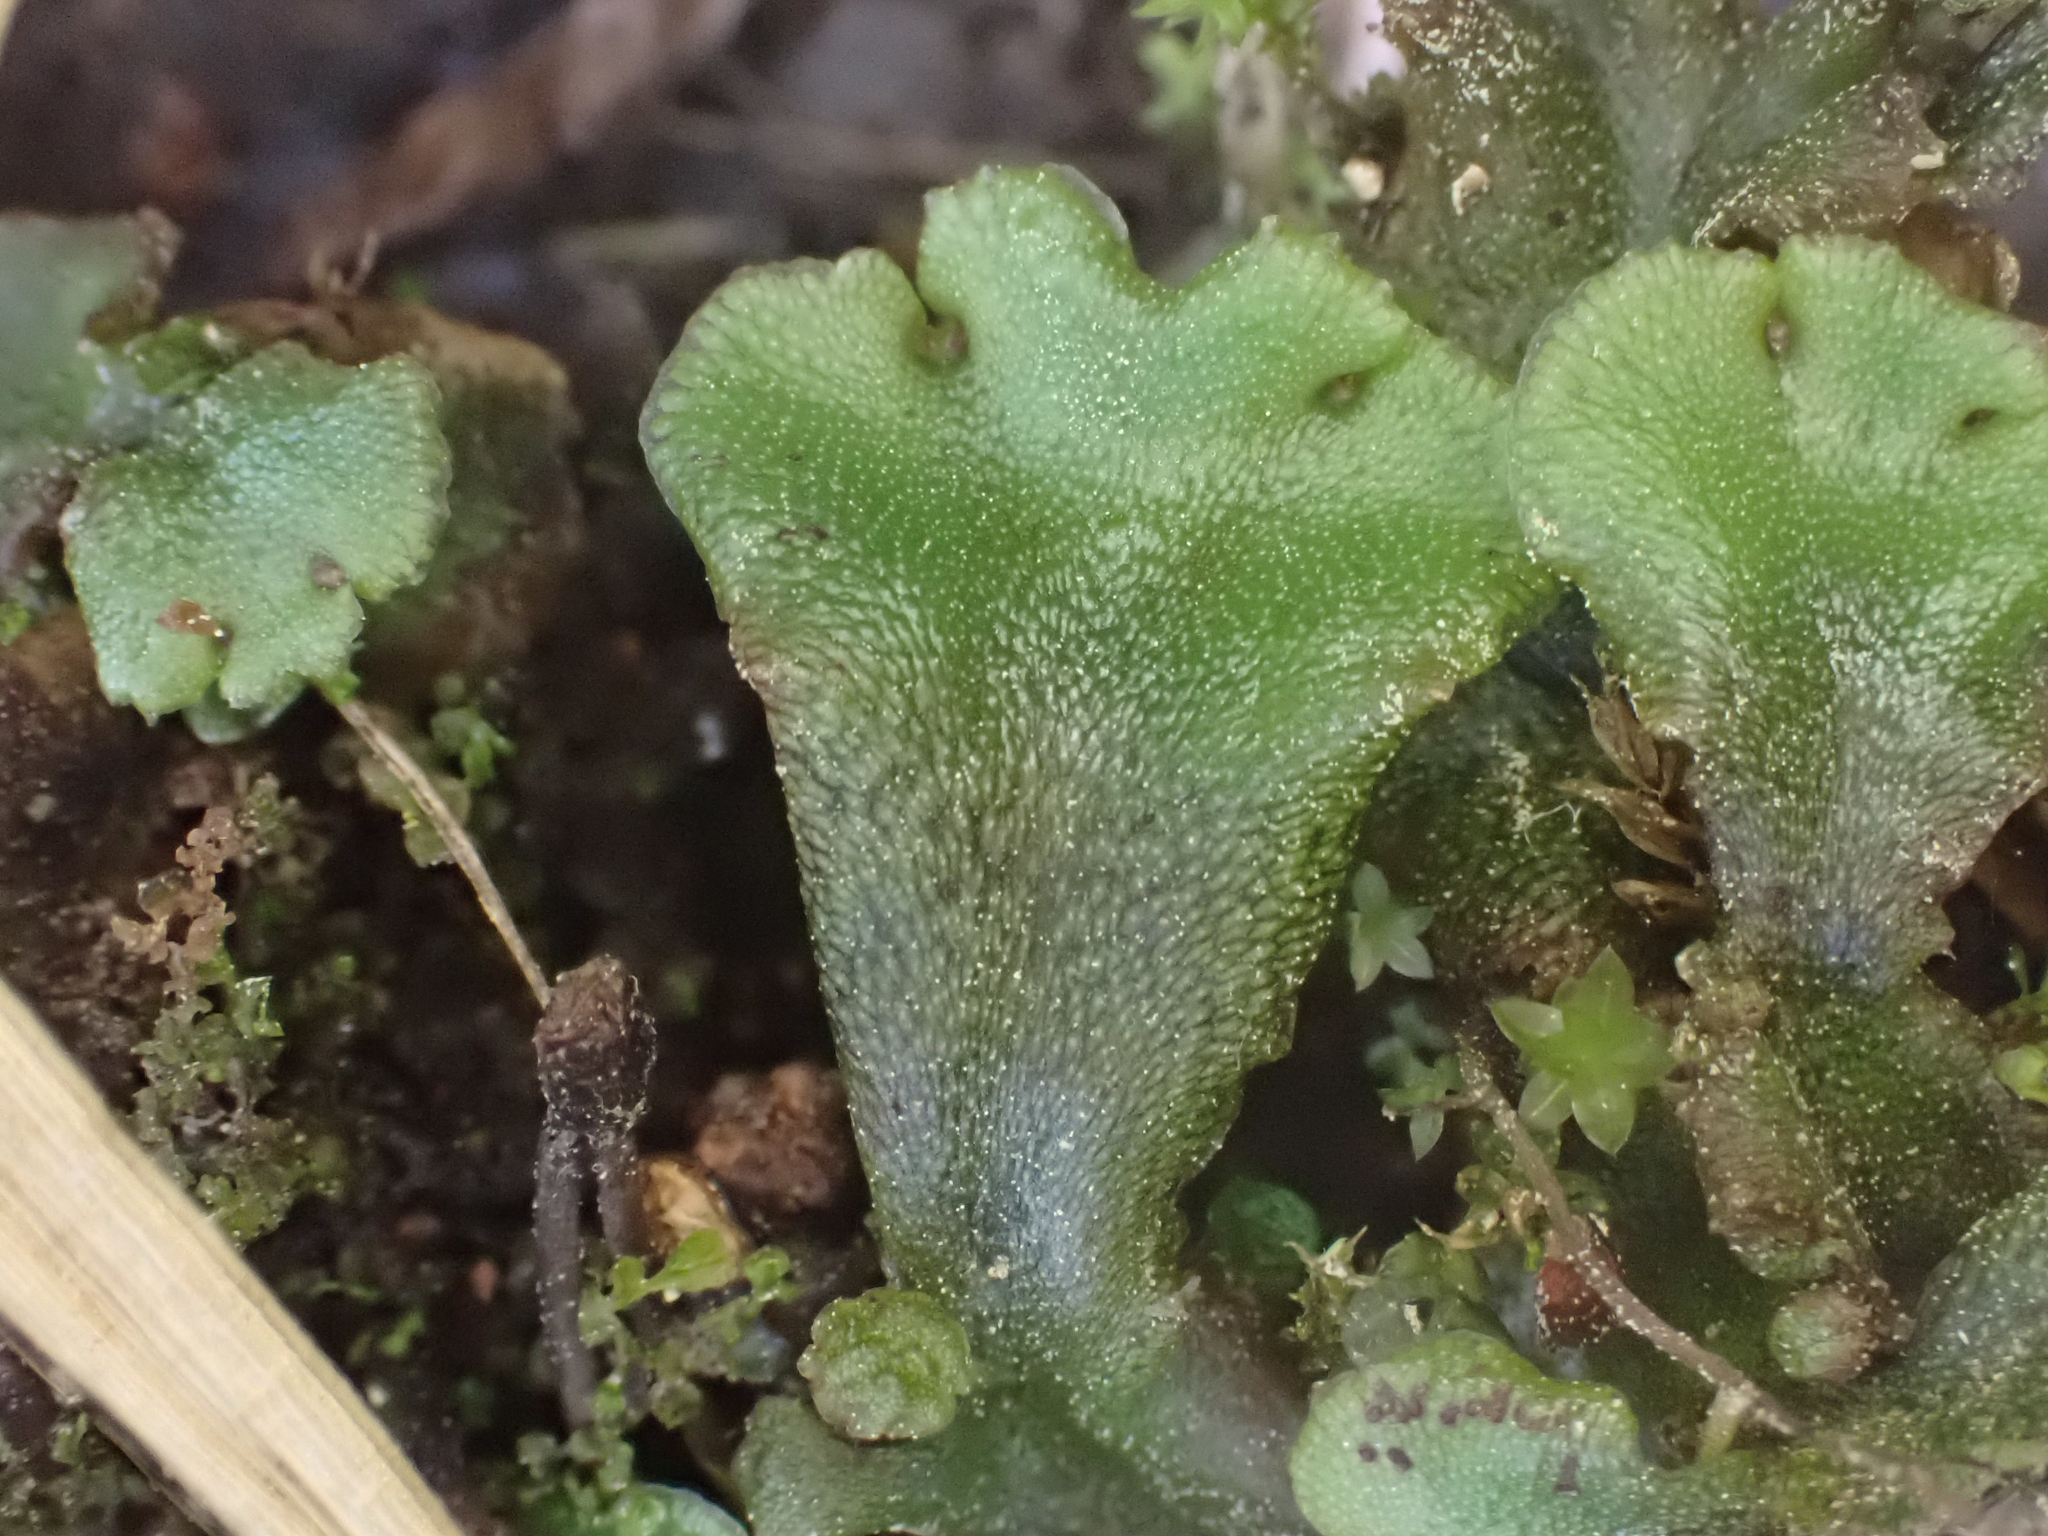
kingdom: Plantae
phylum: Marchantiophyta
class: Marchantiopsida
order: Marchantiales
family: Marchantiaceae
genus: Marchantia
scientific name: Marchantia polymorpha
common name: Common liverwort
